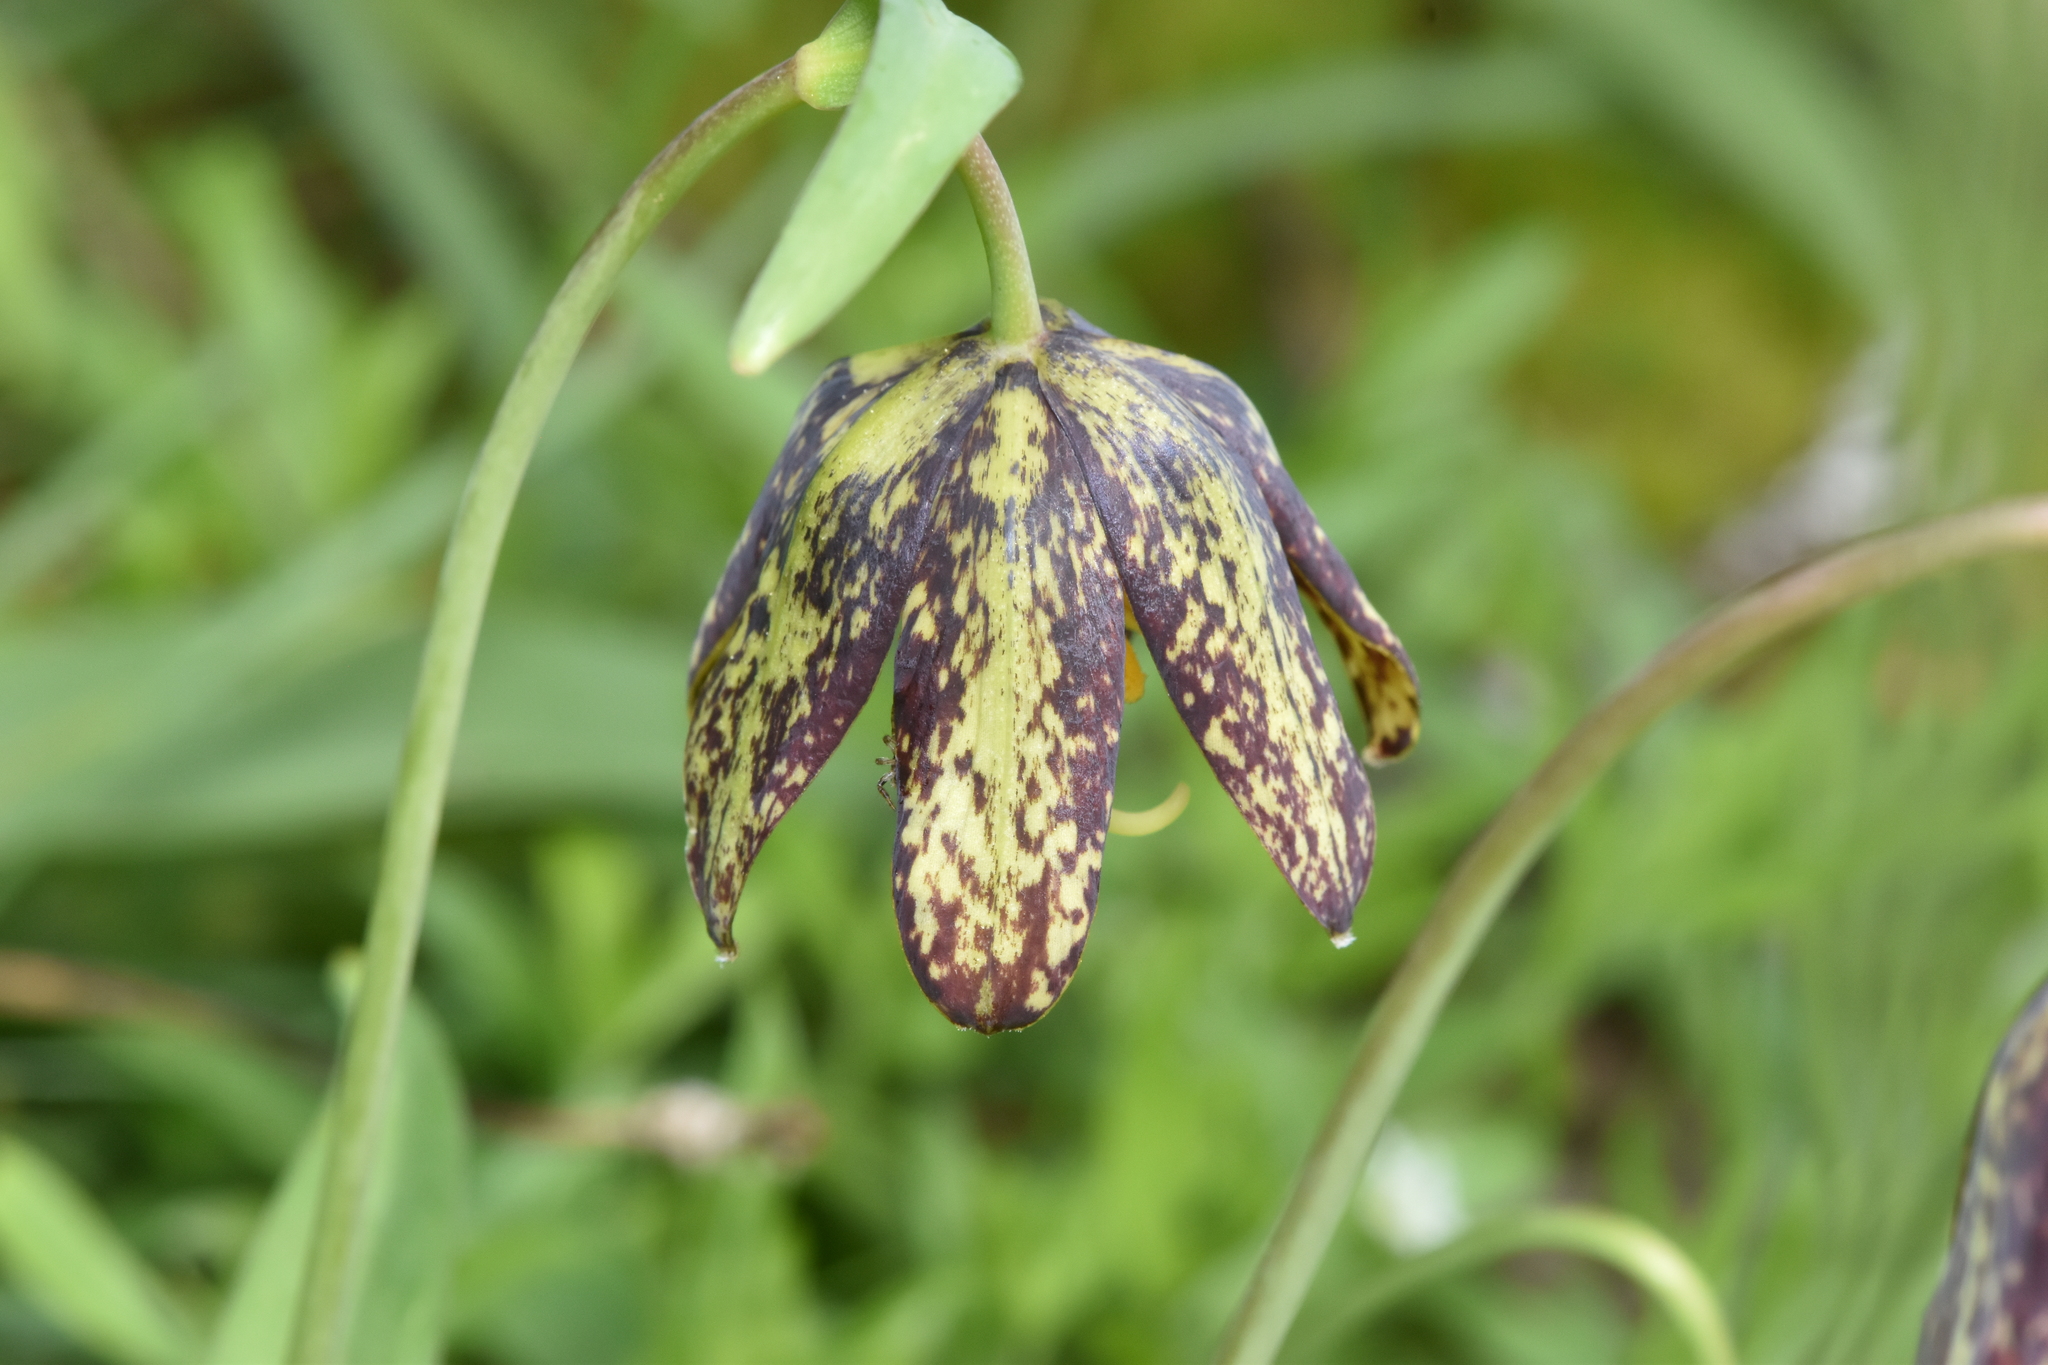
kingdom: Plantae
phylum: Tracheophyta
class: Liliopsida
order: Liliales
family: Liliaceae
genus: Fritillaria
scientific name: Fritillaria affinis
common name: Ojai fritillary
